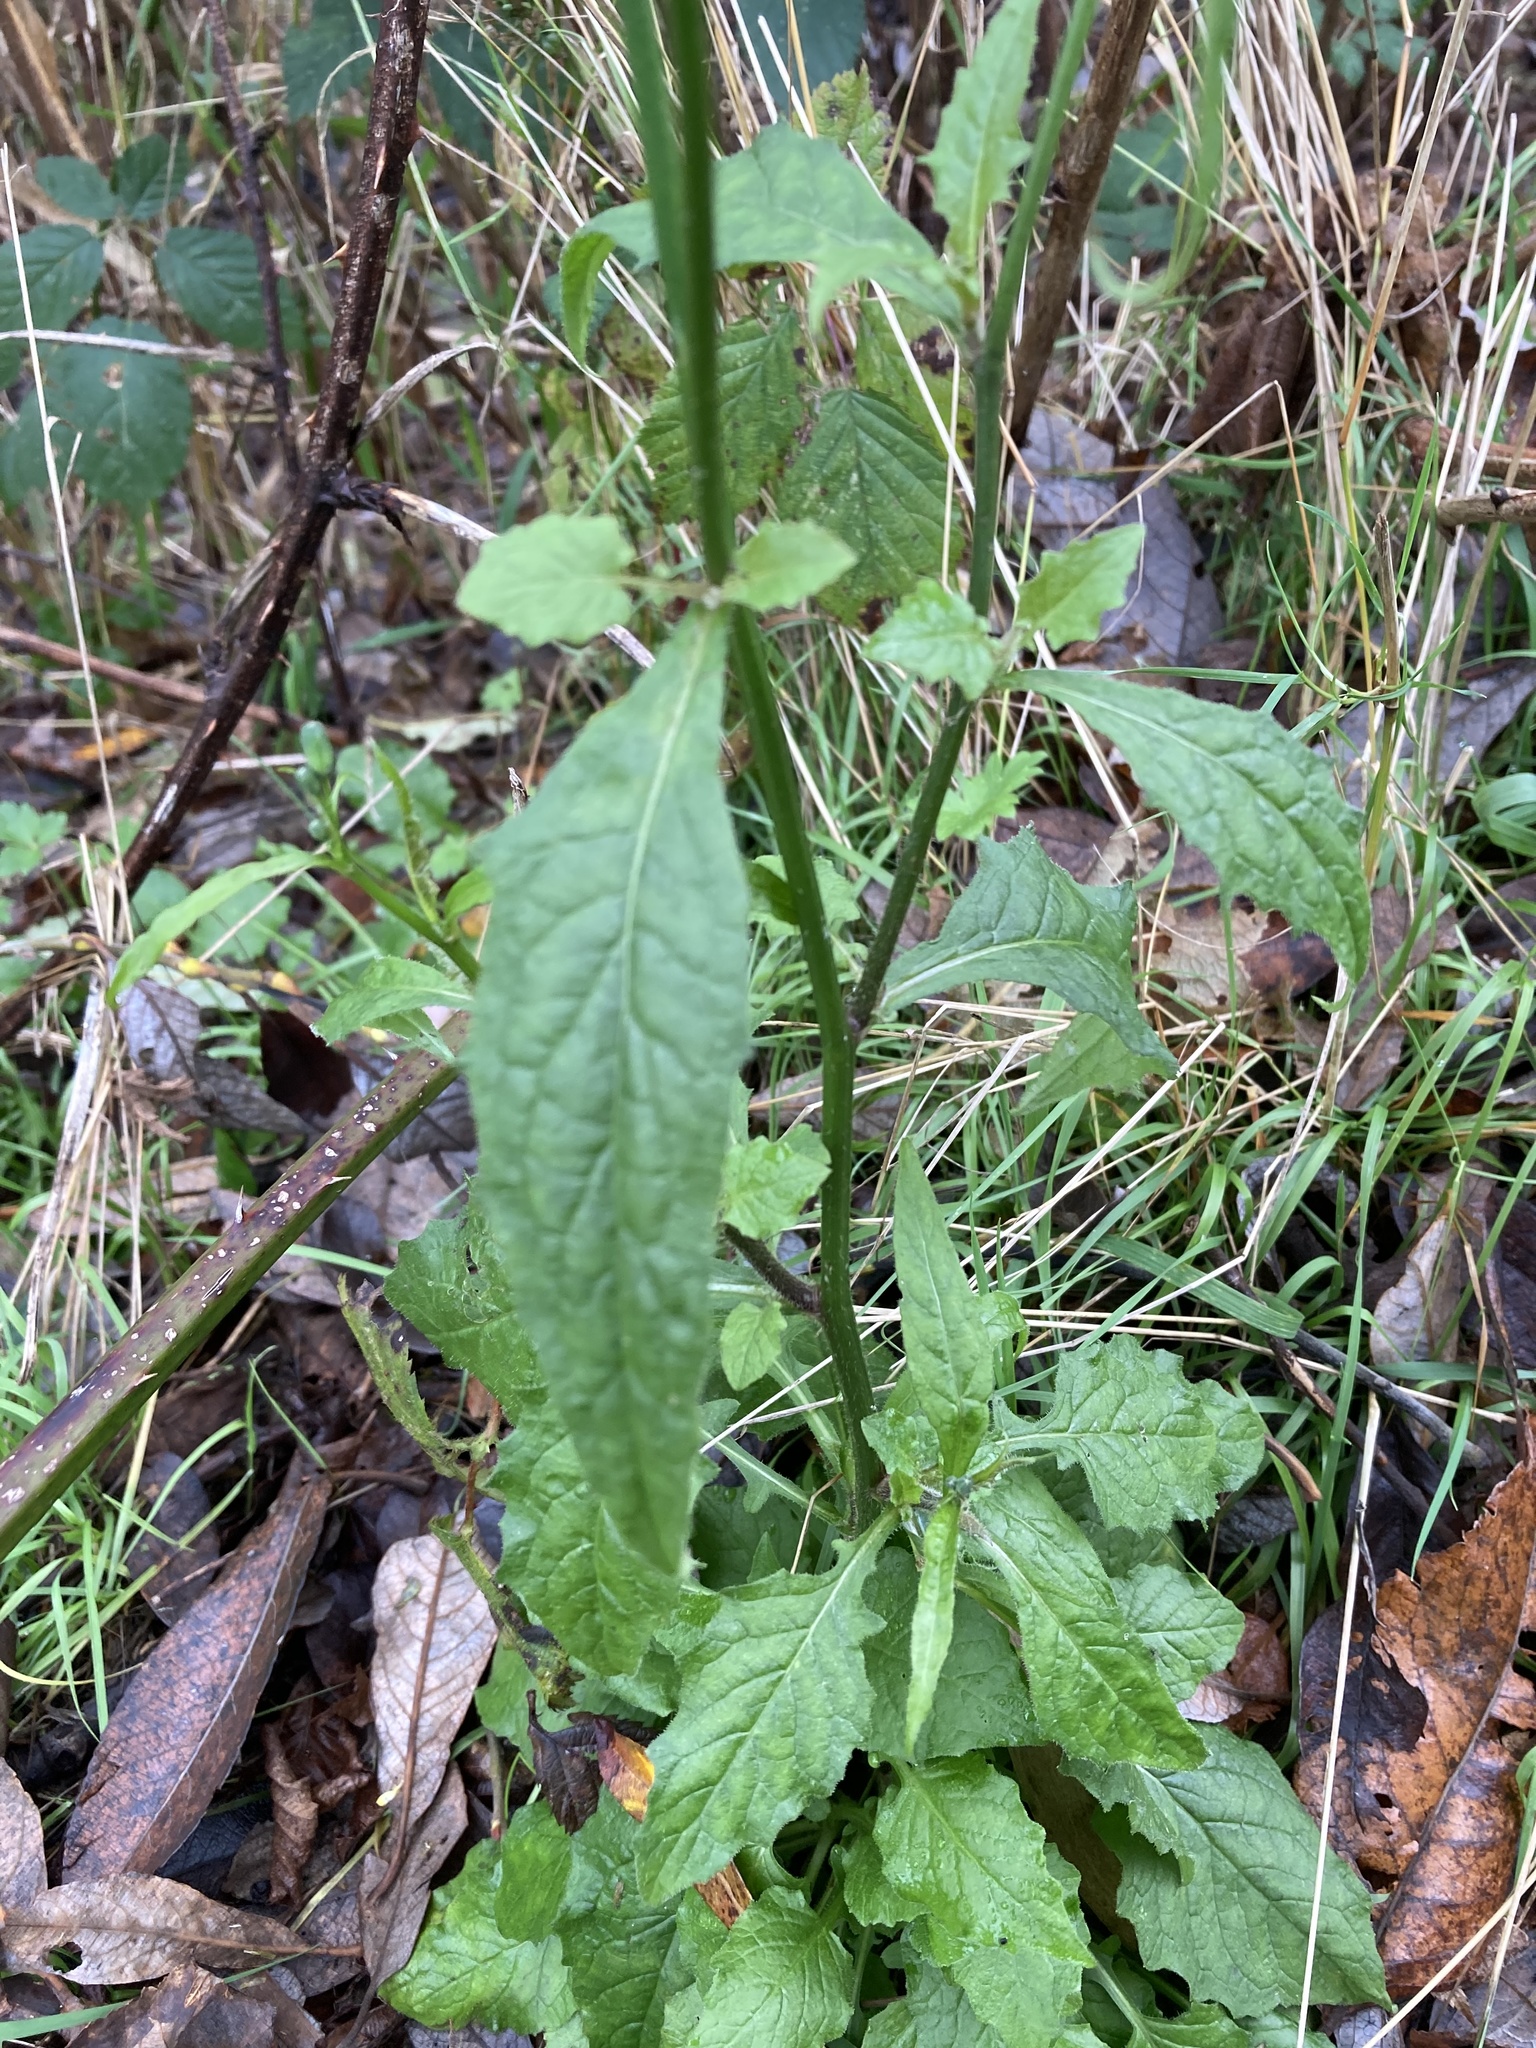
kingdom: Plantae
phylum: Tracheophyta
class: Magnoliopsida
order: Asterales
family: Asteraceae
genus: Lapsana
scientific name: Lapsana communis
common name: Nipplewort
